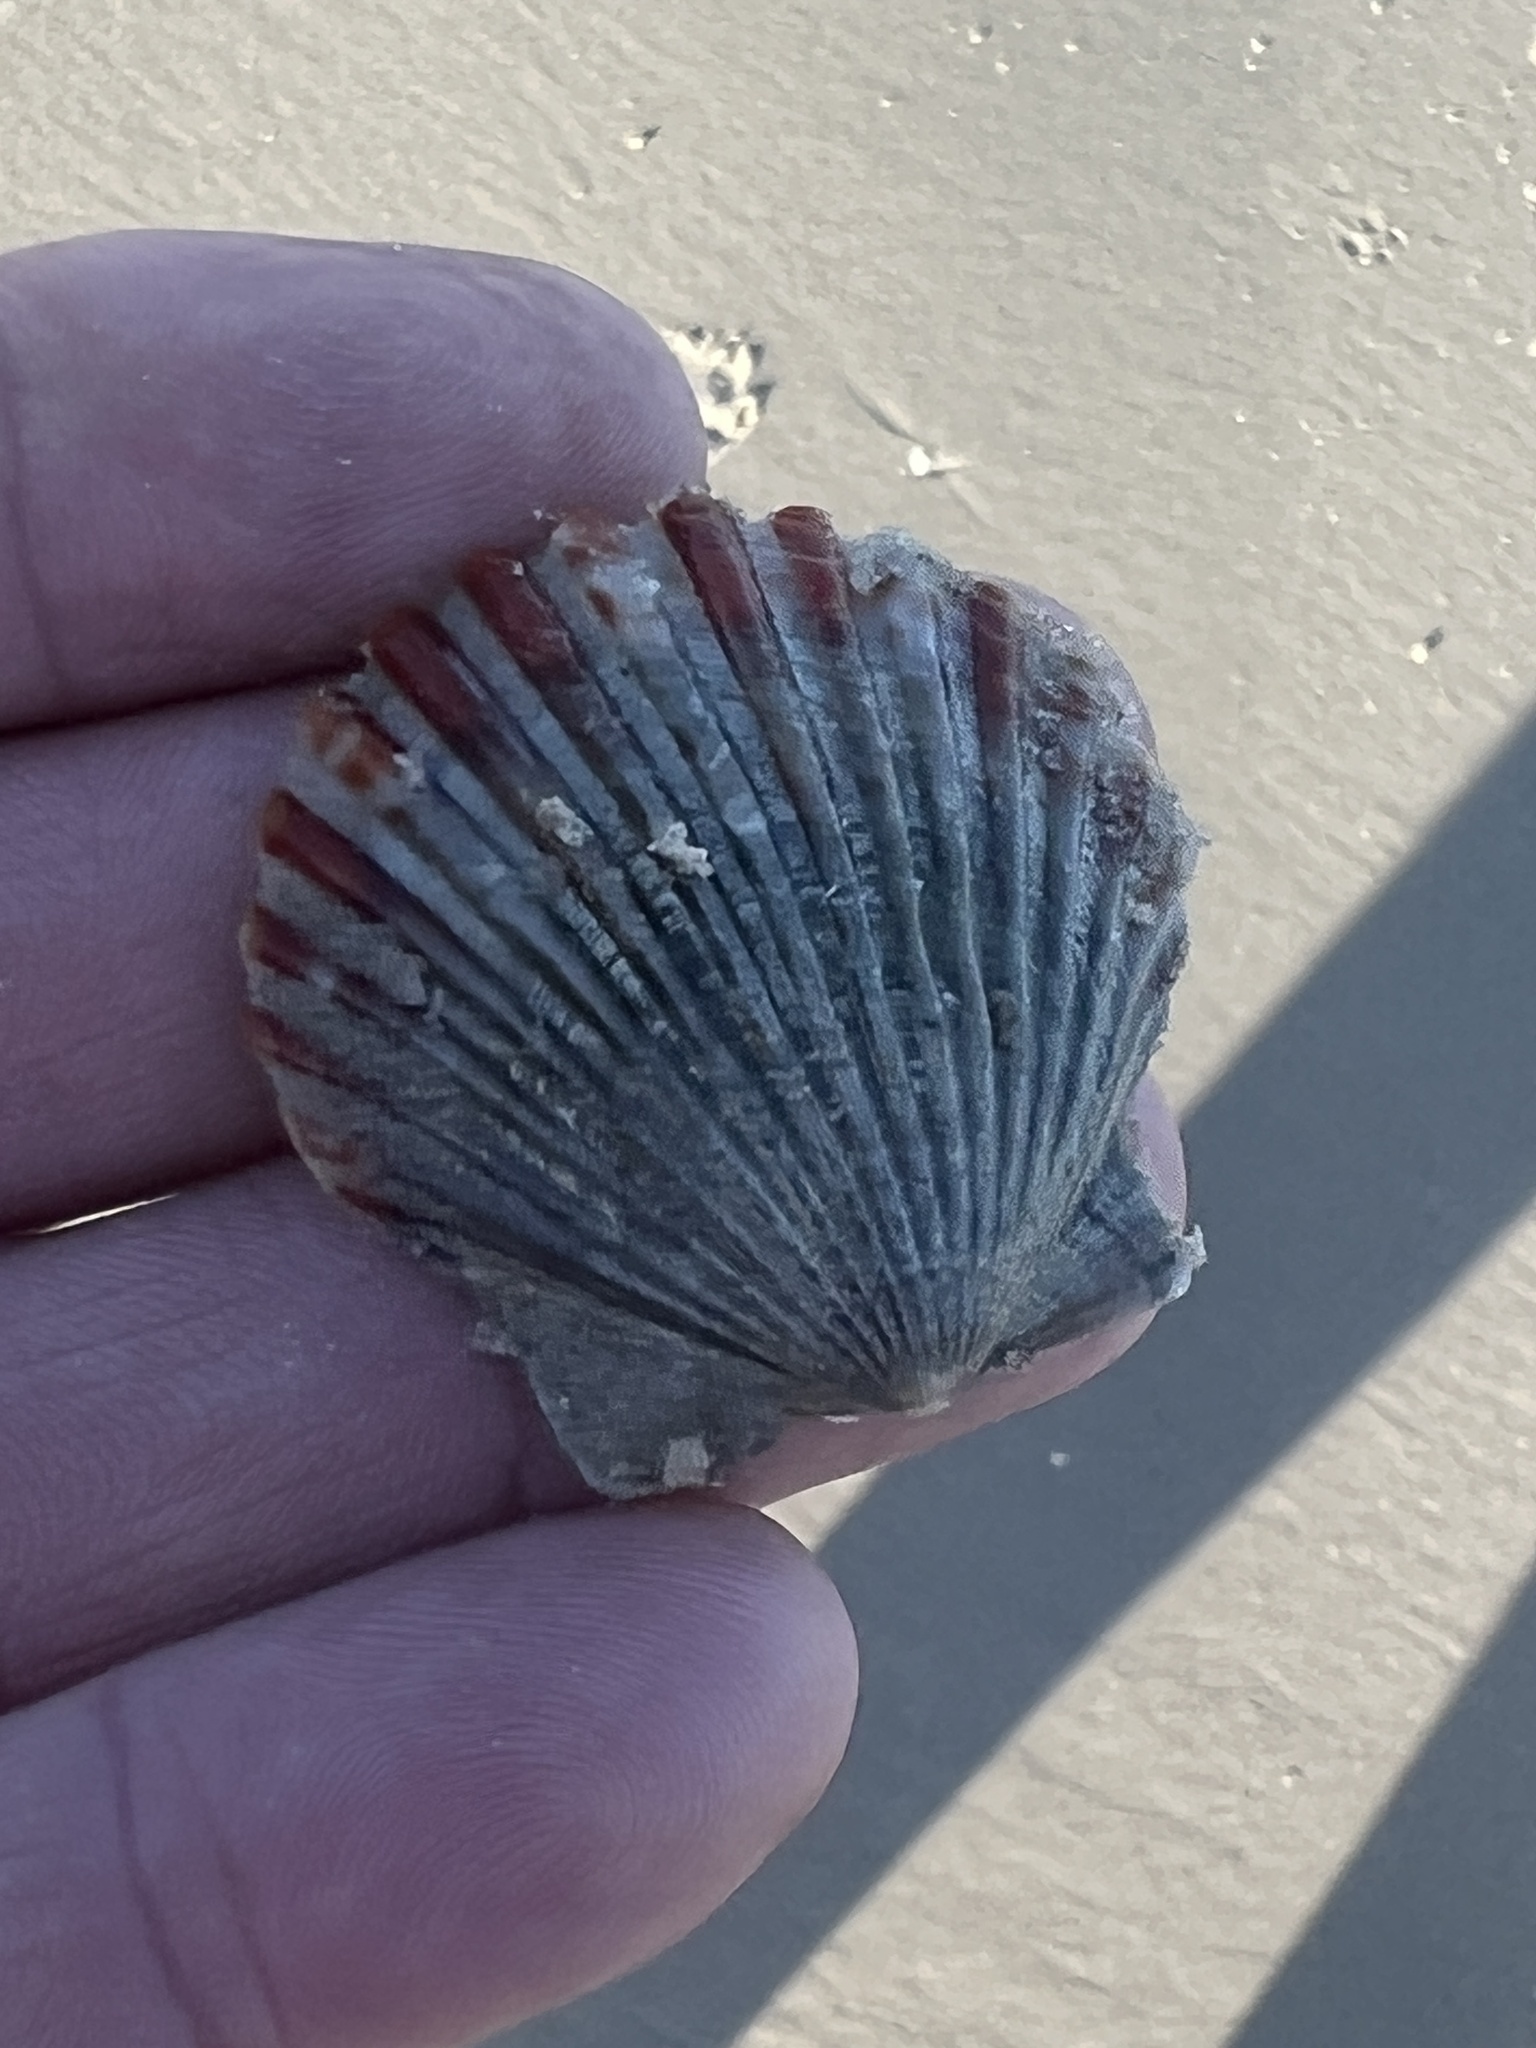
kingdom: Animalia
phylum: Mollusca
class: Bivalvia
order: Pectinida
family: Pectinidae
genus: Argopecten
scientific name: Argopecten irradians
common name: Atlantic bay scallop
